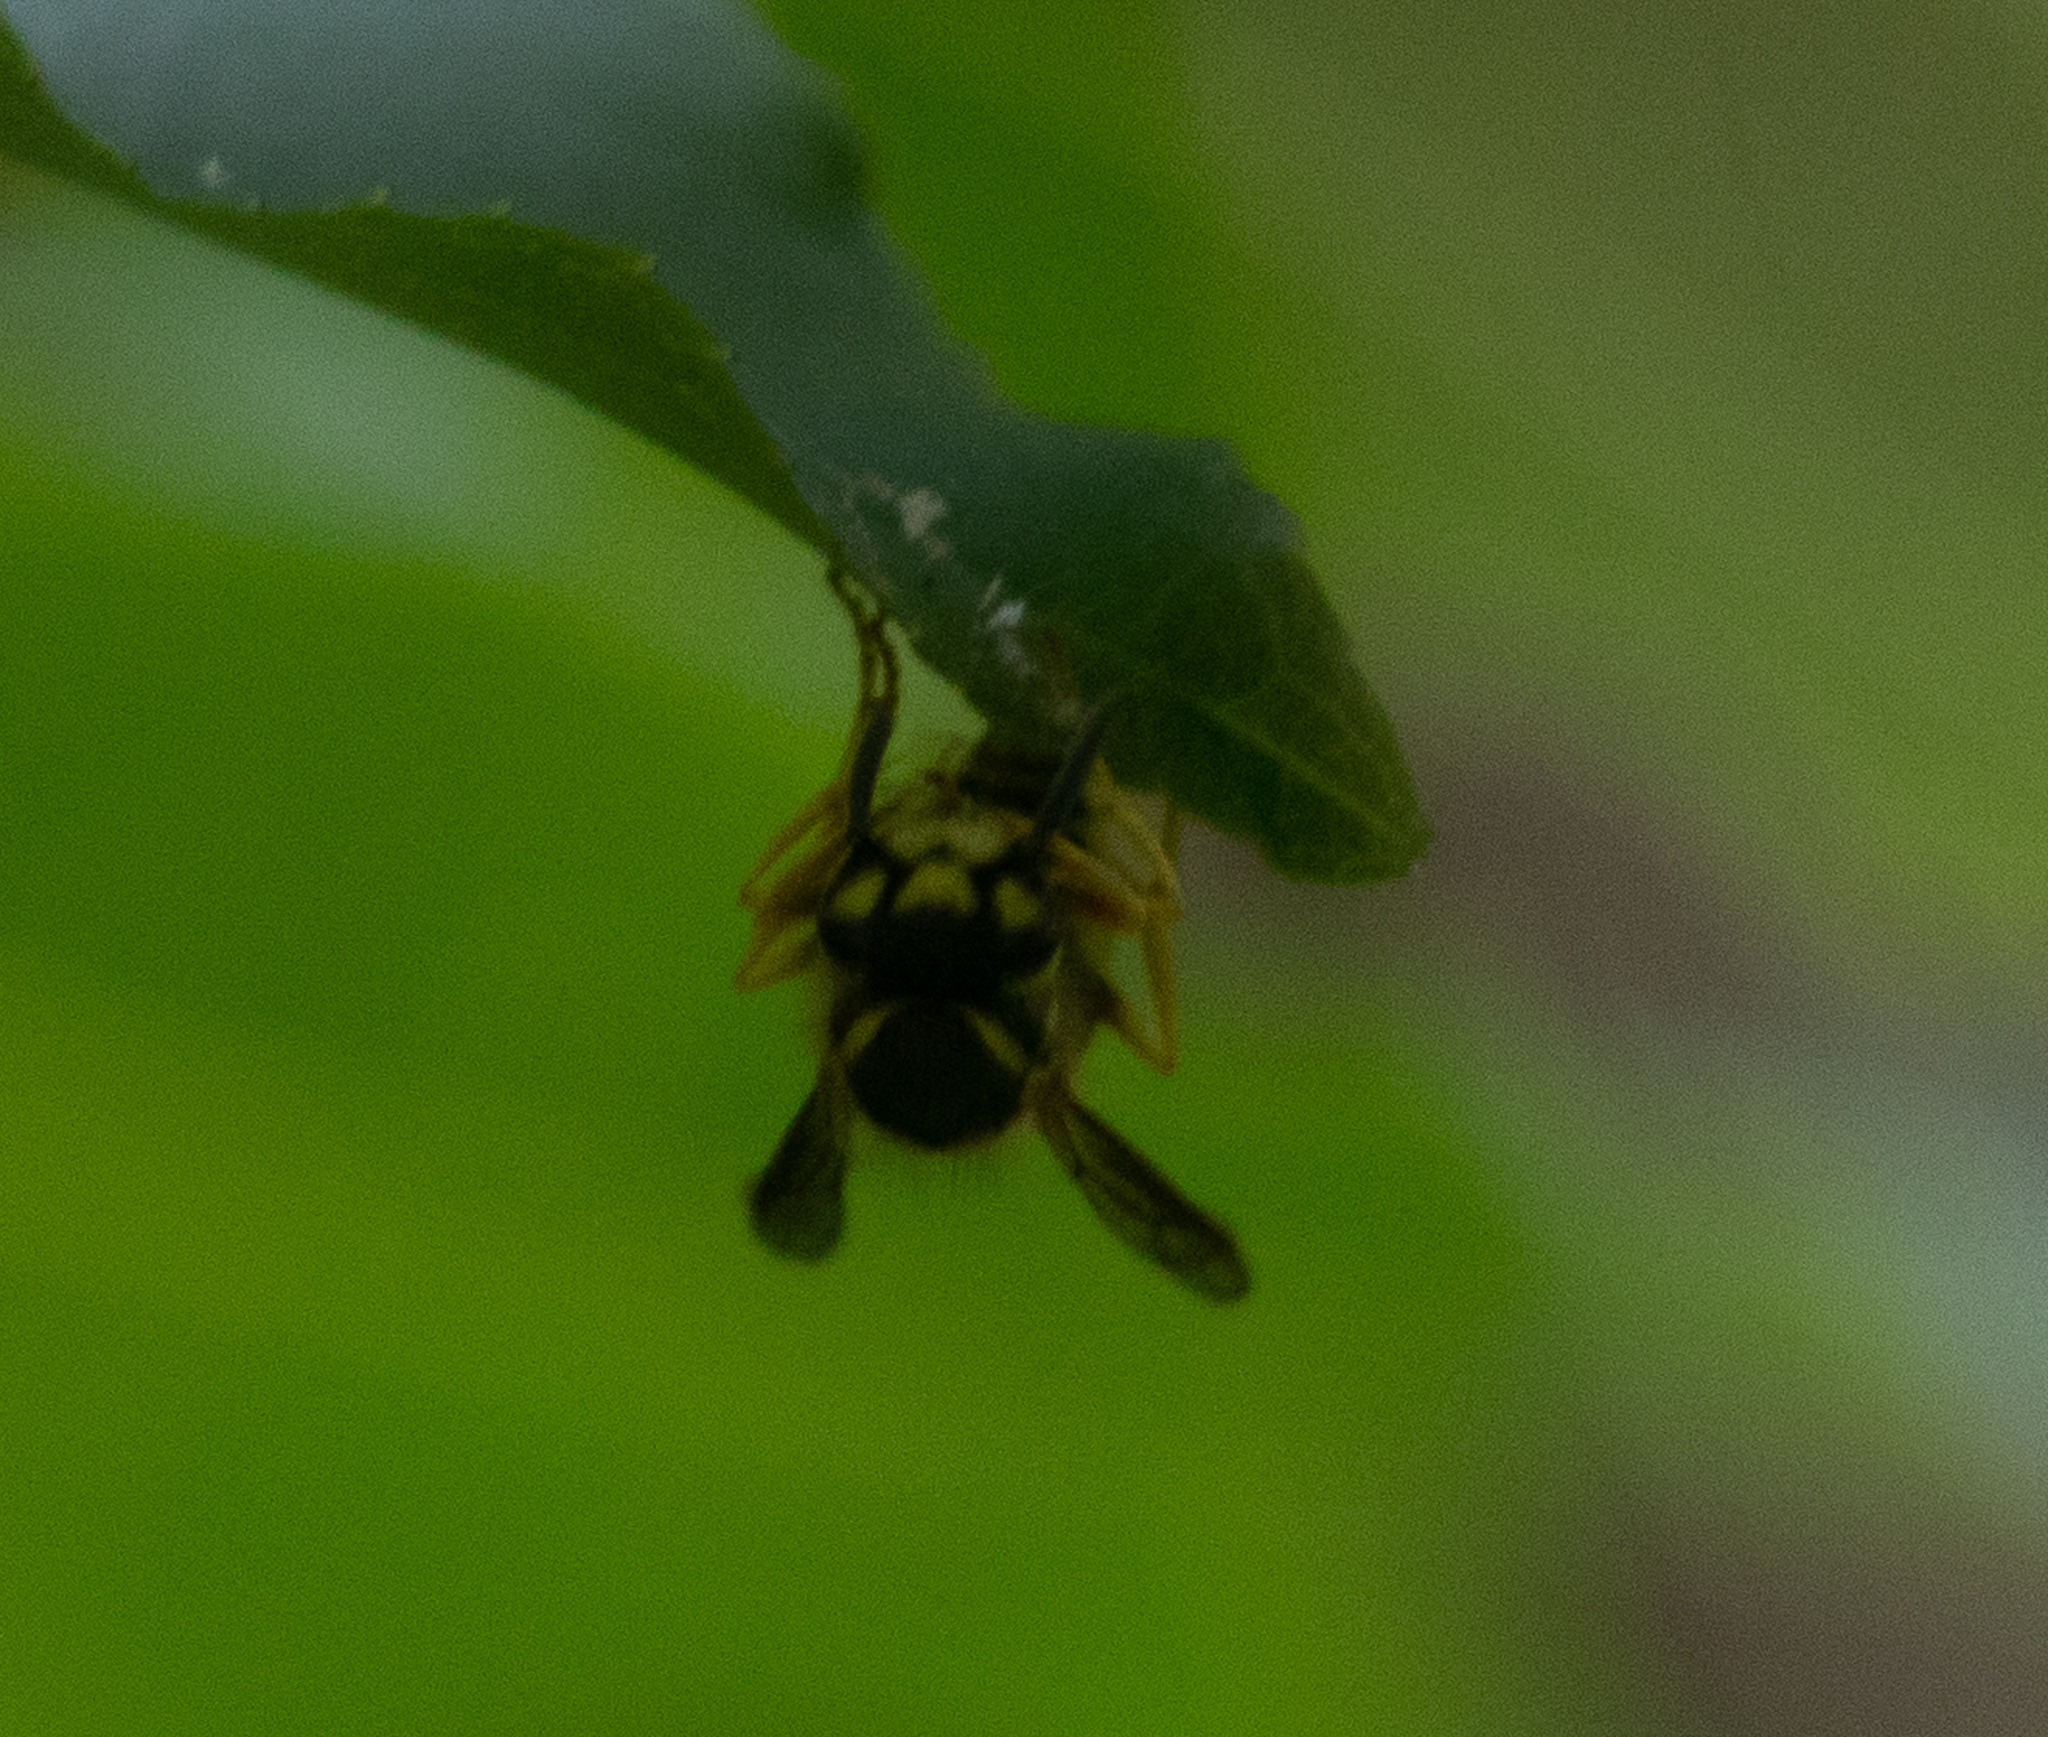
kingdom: Animalia
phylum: Arthropoda
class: Insecta
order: Hymenoptera
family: Vespidae
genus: Vespula
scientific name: Vespula maculifrons
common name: Eastern yellowjacket
